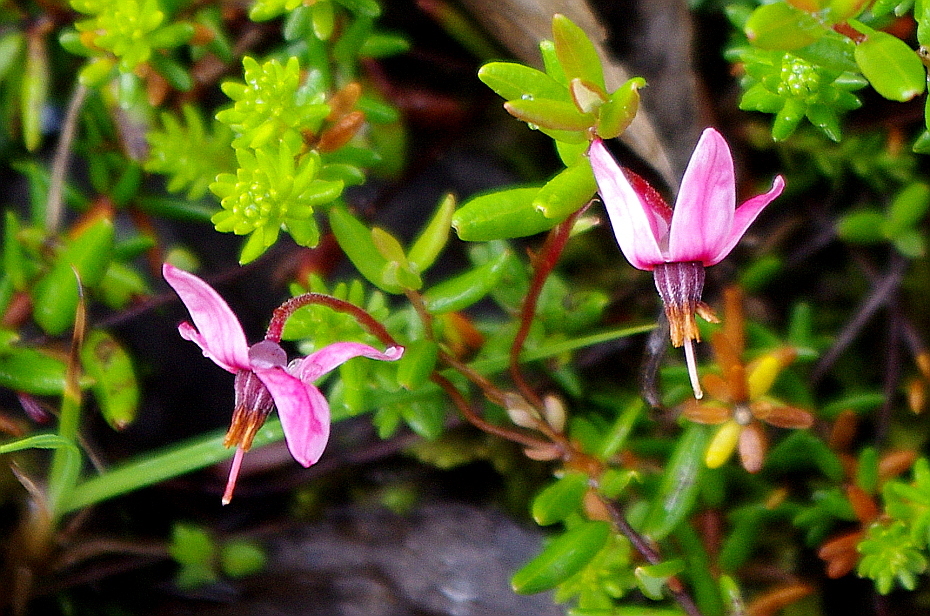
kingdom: Plantae
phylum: Tracheophyta
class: Magnoliopsida
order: Ericales
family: Ericaceae
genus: Vaccinium
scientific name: Vaccinium oxycoccos
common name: Cranberry
